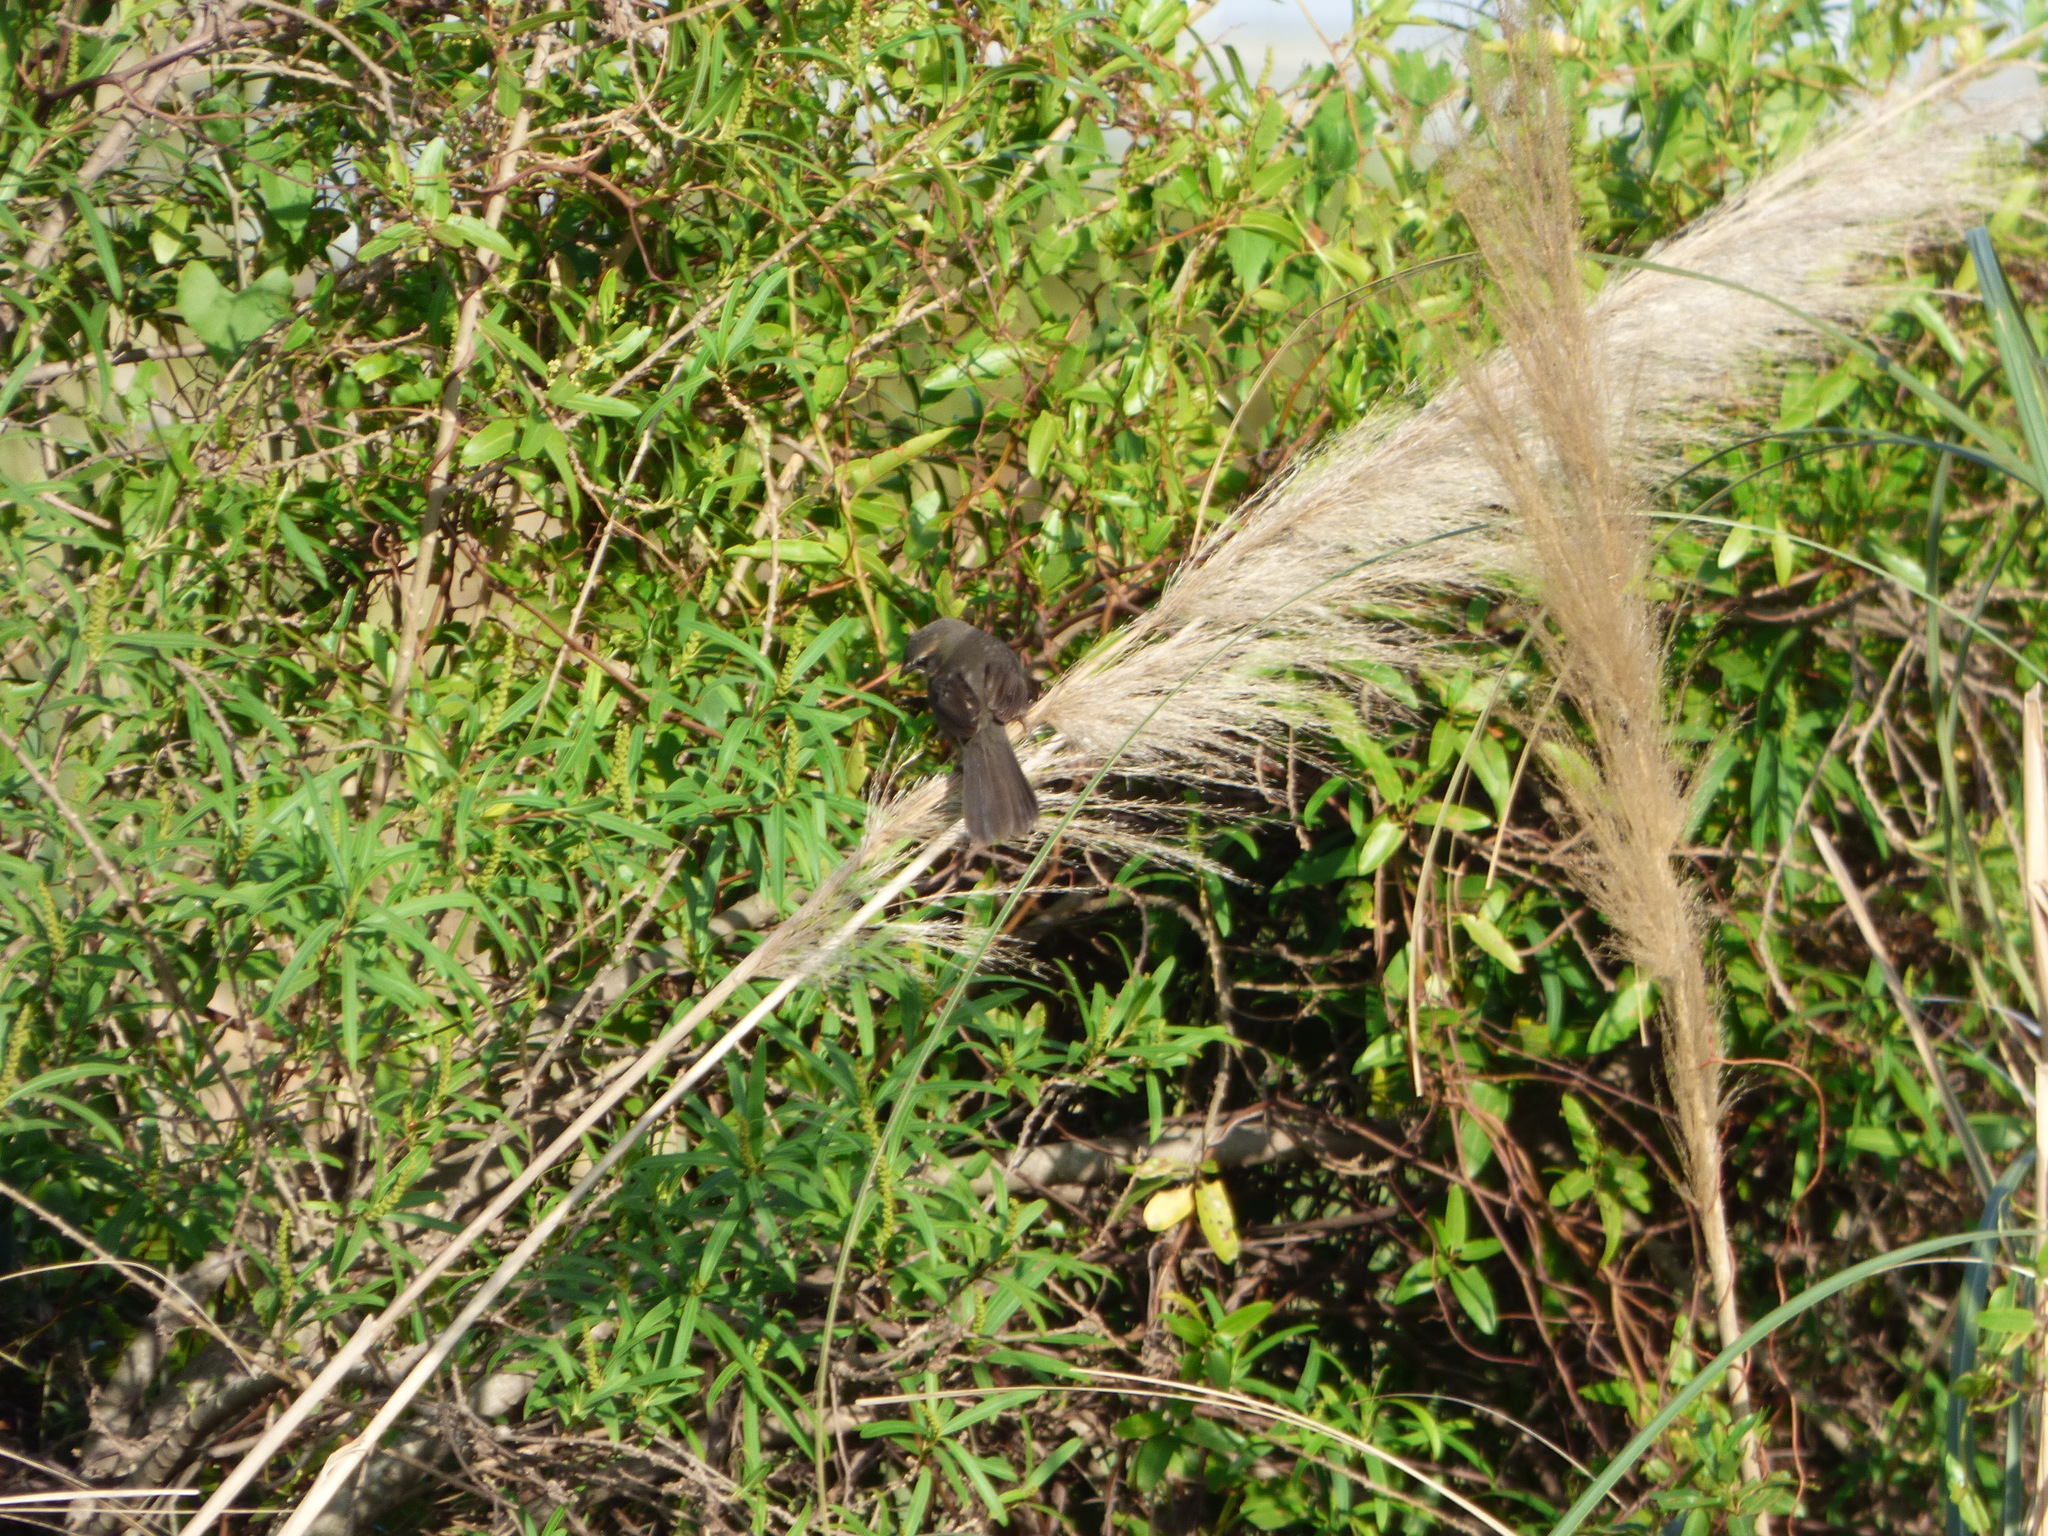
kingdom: Animalia
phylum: Chordata
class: Aves
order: Passeriformes
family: Thraupidae
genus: Poospiza
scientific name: Poospiza nigrorufa
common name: Black-and-rufous warbling finch
